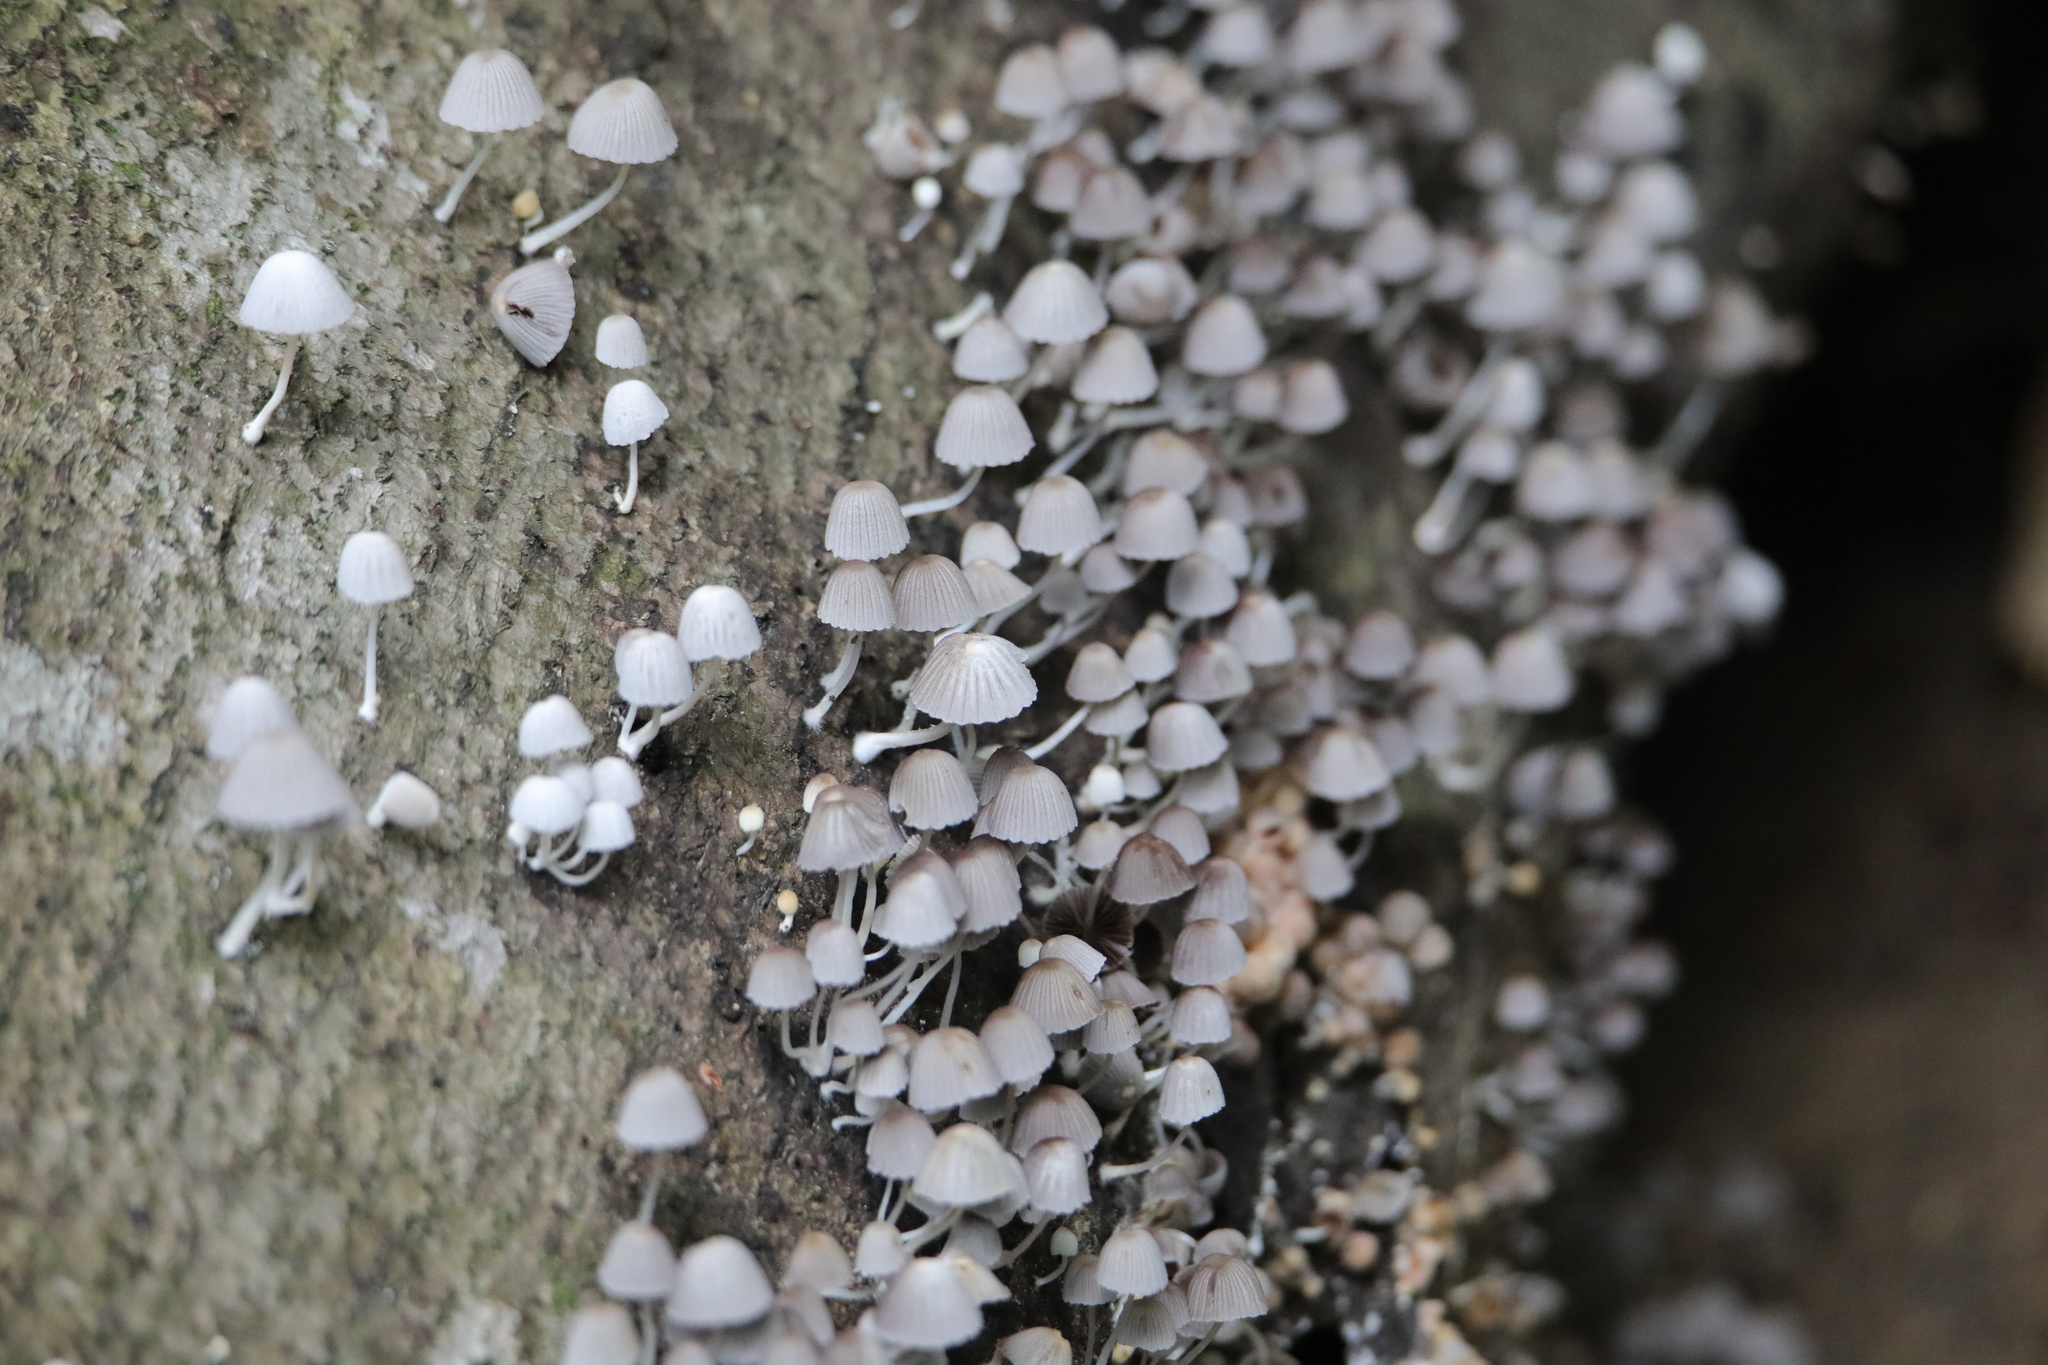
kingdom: Fungi
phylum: Basidiomycota
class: Agaricomycetes
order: Agaricales
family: Psathyrellaceae
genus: Coprinellus
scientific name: Coprinellus disseminatus
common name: Fairies' bonnets
